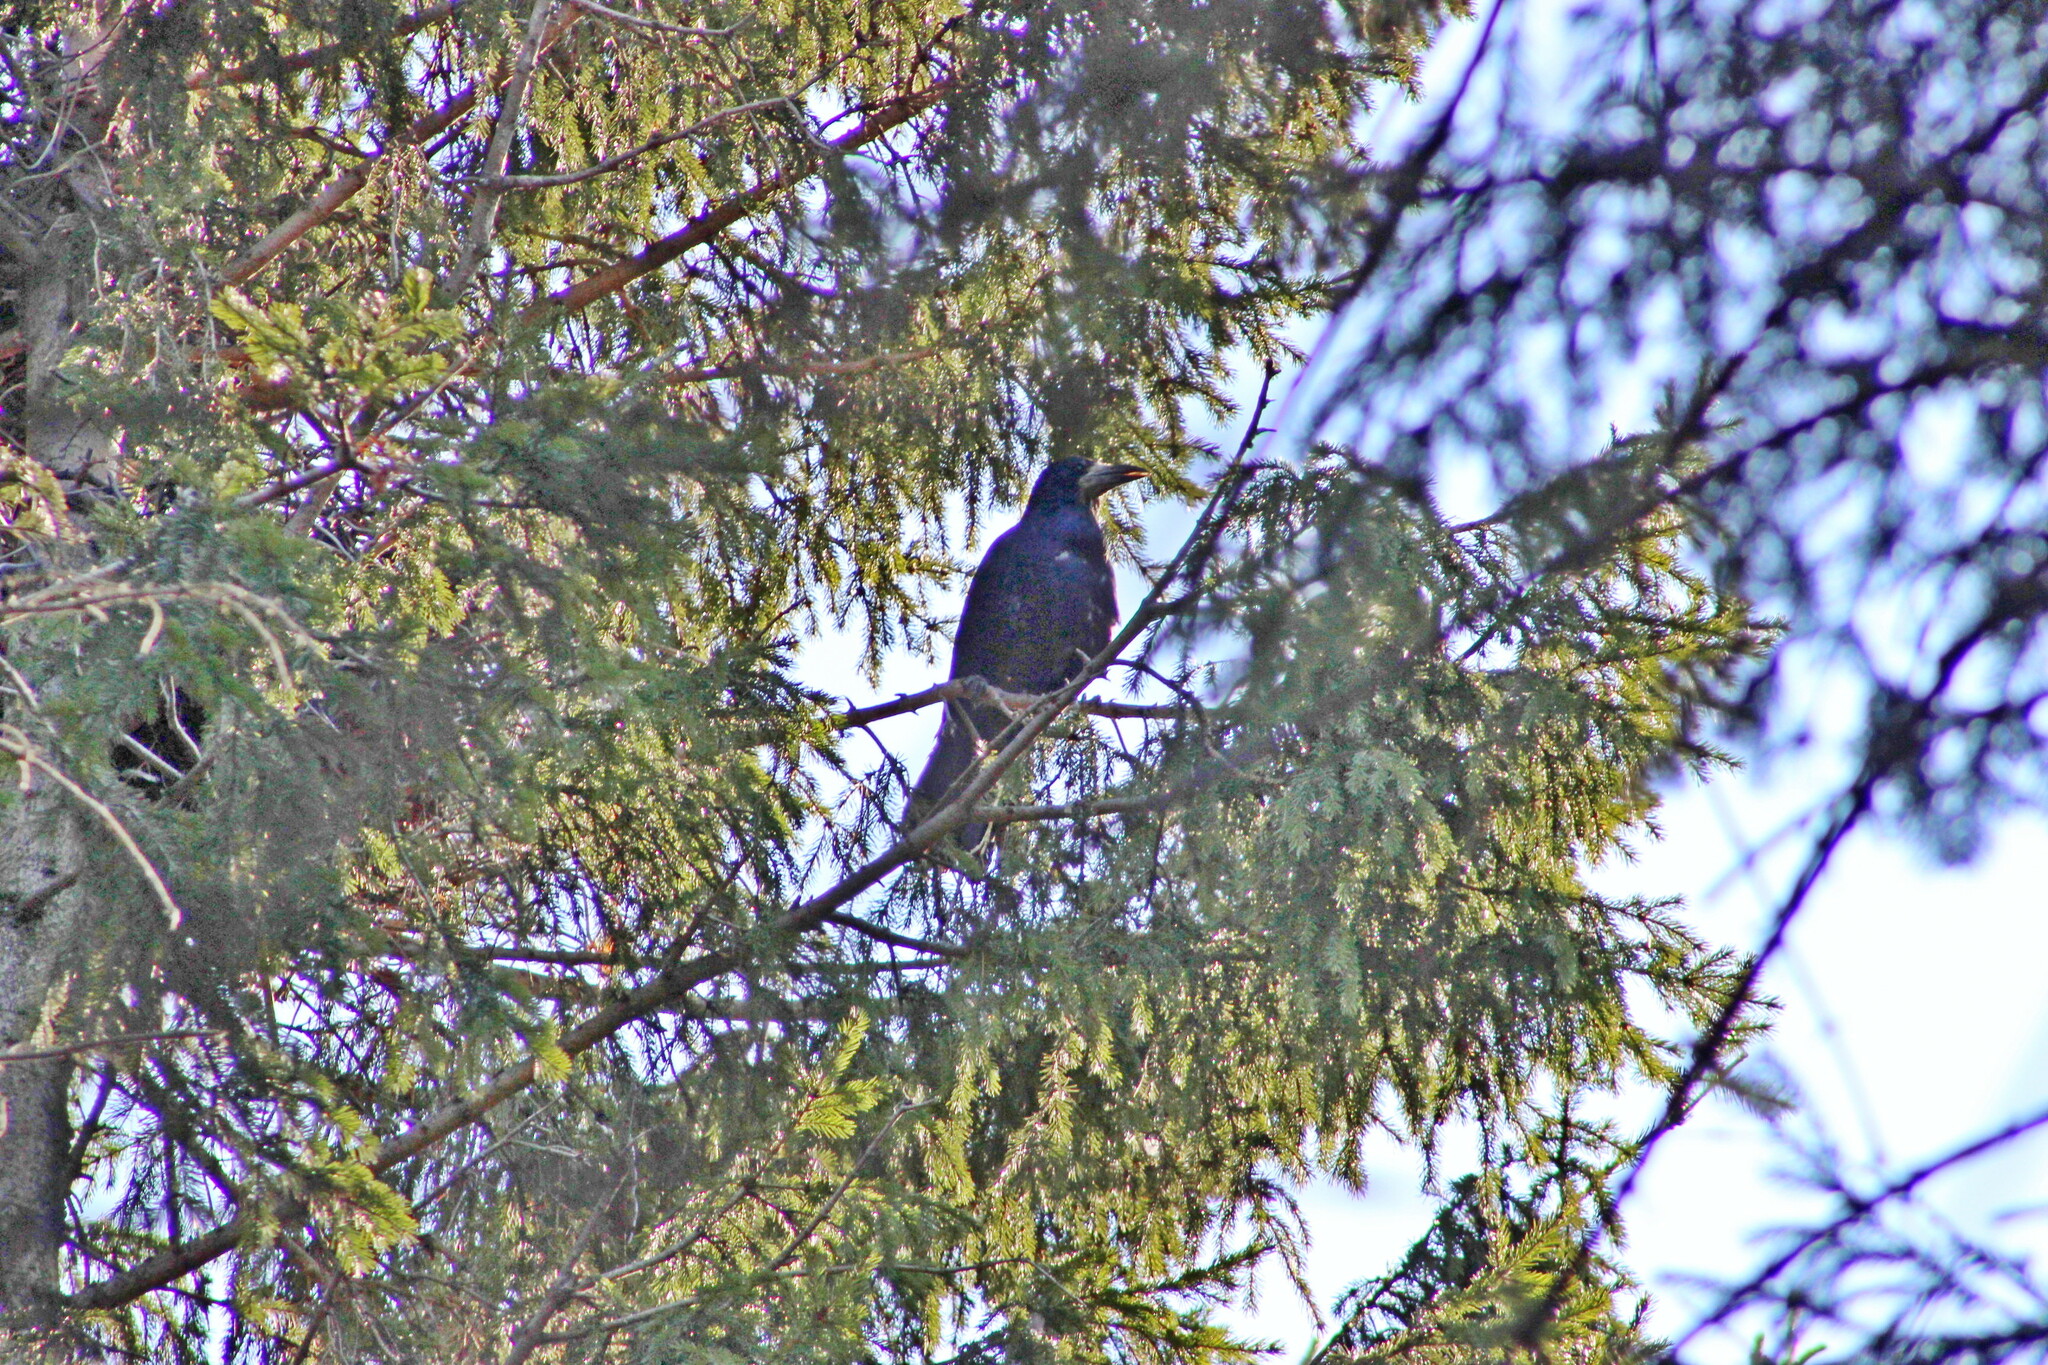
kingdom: Animalia
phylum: Chordata
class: Aves
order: Passeriformes
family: Corvidae
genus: Corvus
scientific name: Corvus frugilegus
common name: Rook
